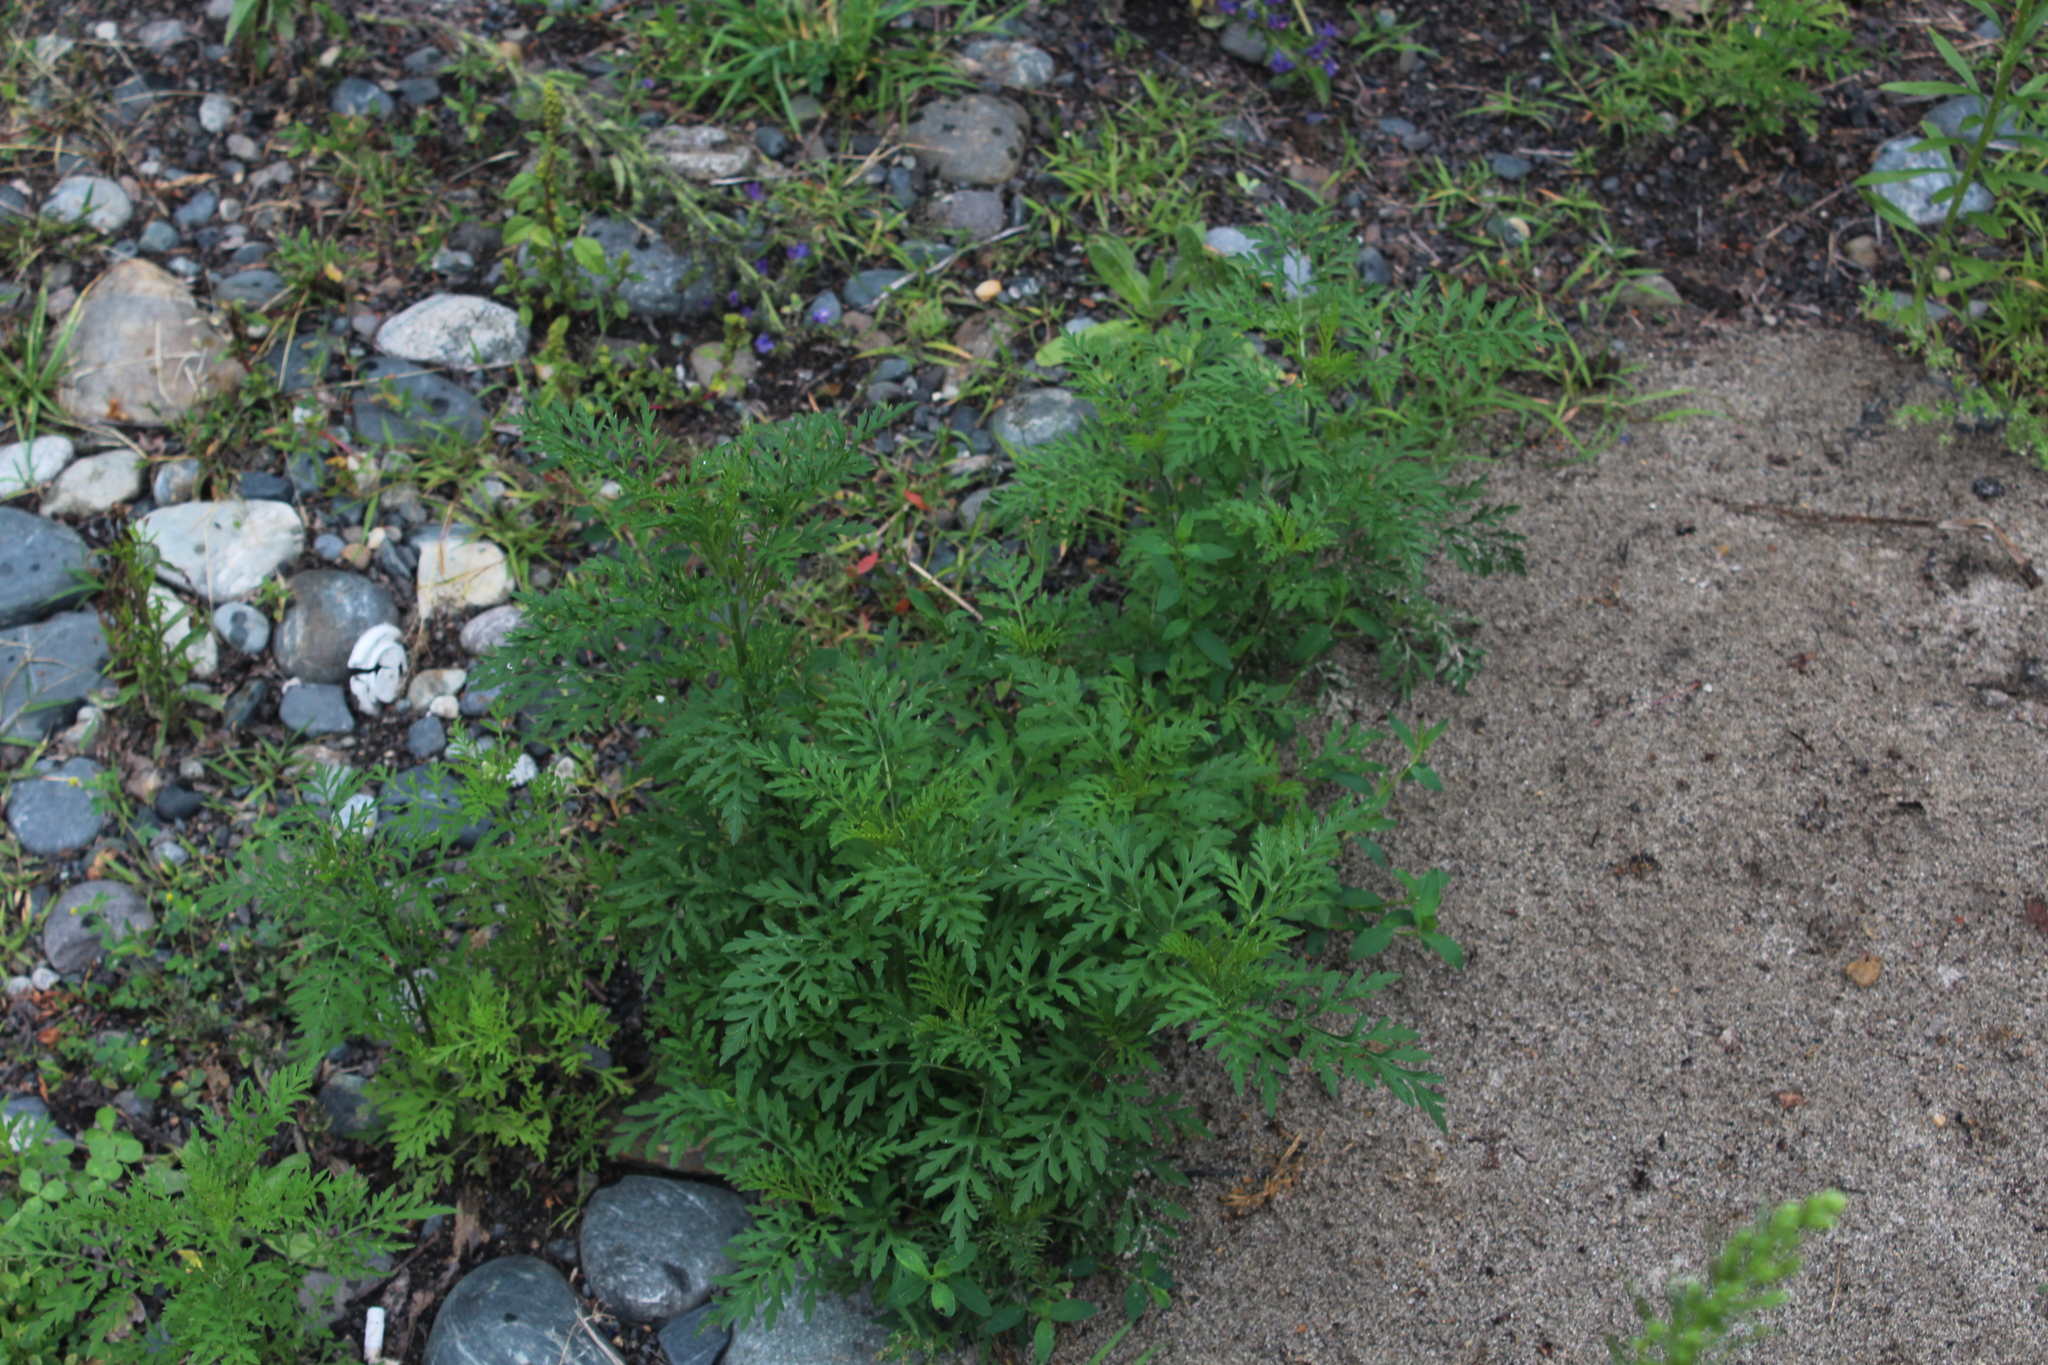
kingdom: Plantae
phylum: Tracheophyta
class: Magnoliopsida
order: Asterales
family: Asteraceae
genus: Ambrosia
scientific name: Ambrosia artemisiifolia
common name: Annual ragweed
